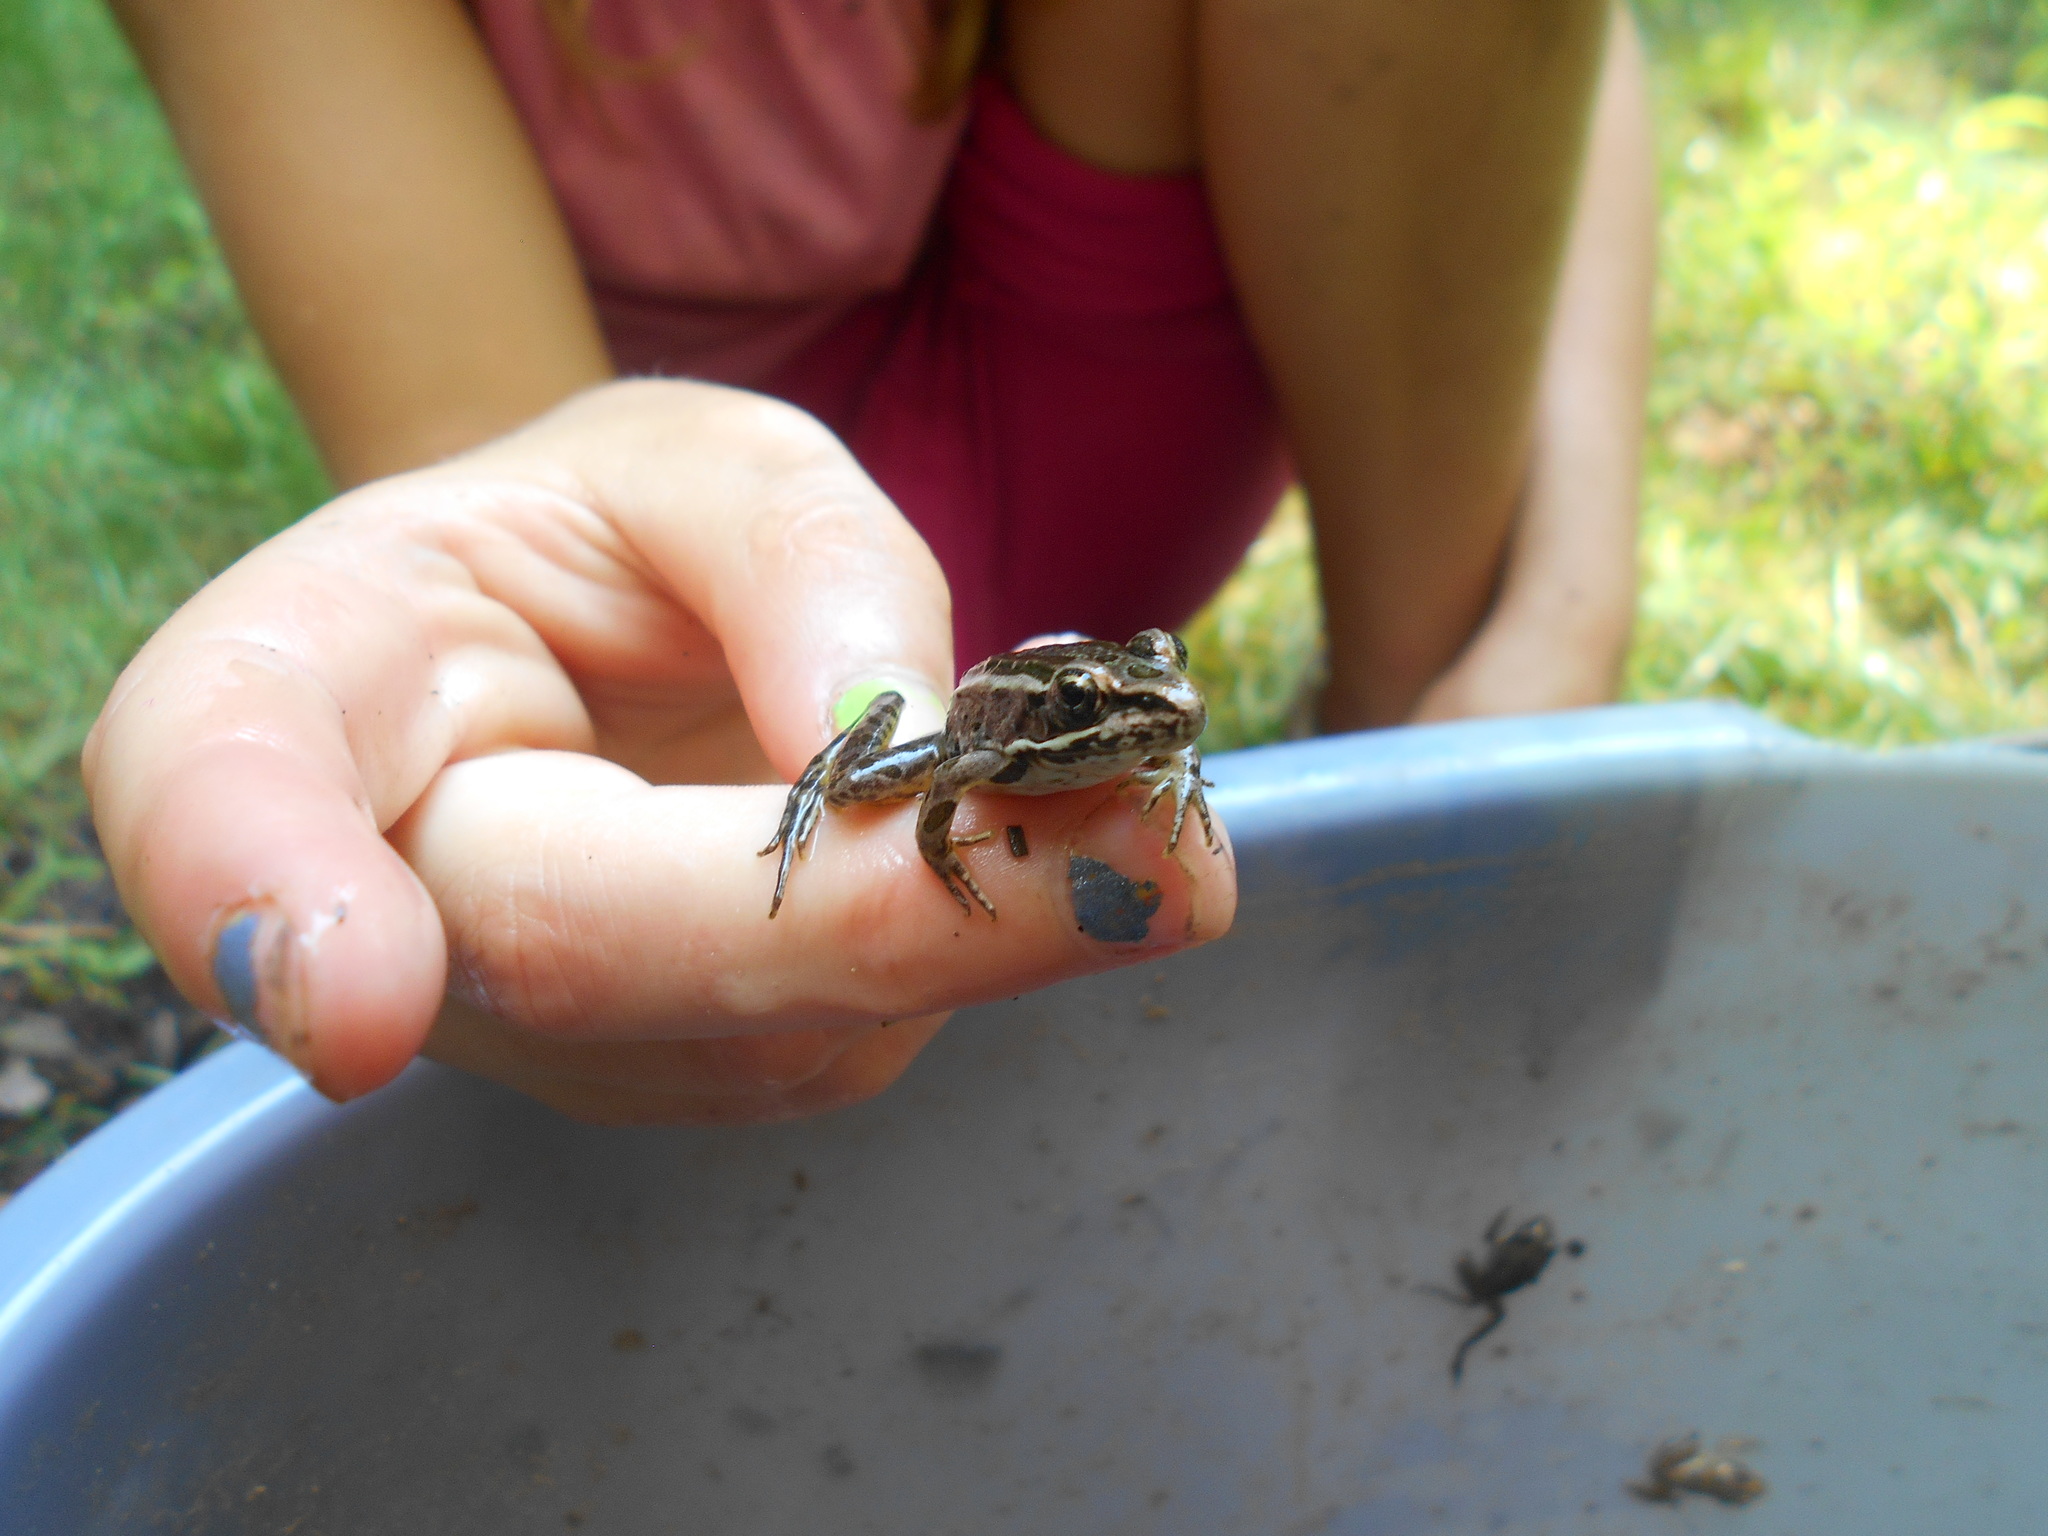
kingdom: Animalia
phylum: Chordata
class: Amphibia
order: Anura
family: Ranidae
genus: Lithobates
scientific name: Lithobates palustris
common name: Pickerel frog
